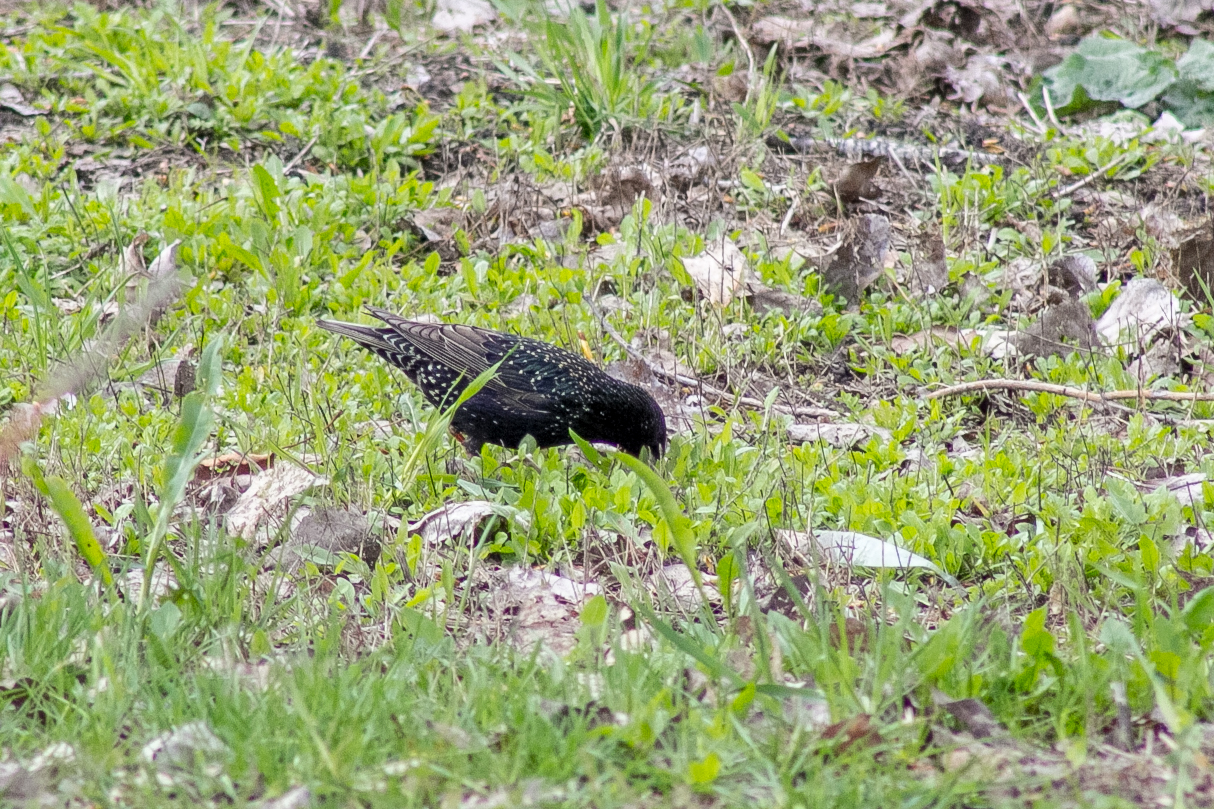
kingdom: Animalia
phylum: Chordata
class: Aves
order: Passeriformes
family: Sturnidae
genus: Sturnus
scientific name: Sturnus vulgaris
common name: Common starling
